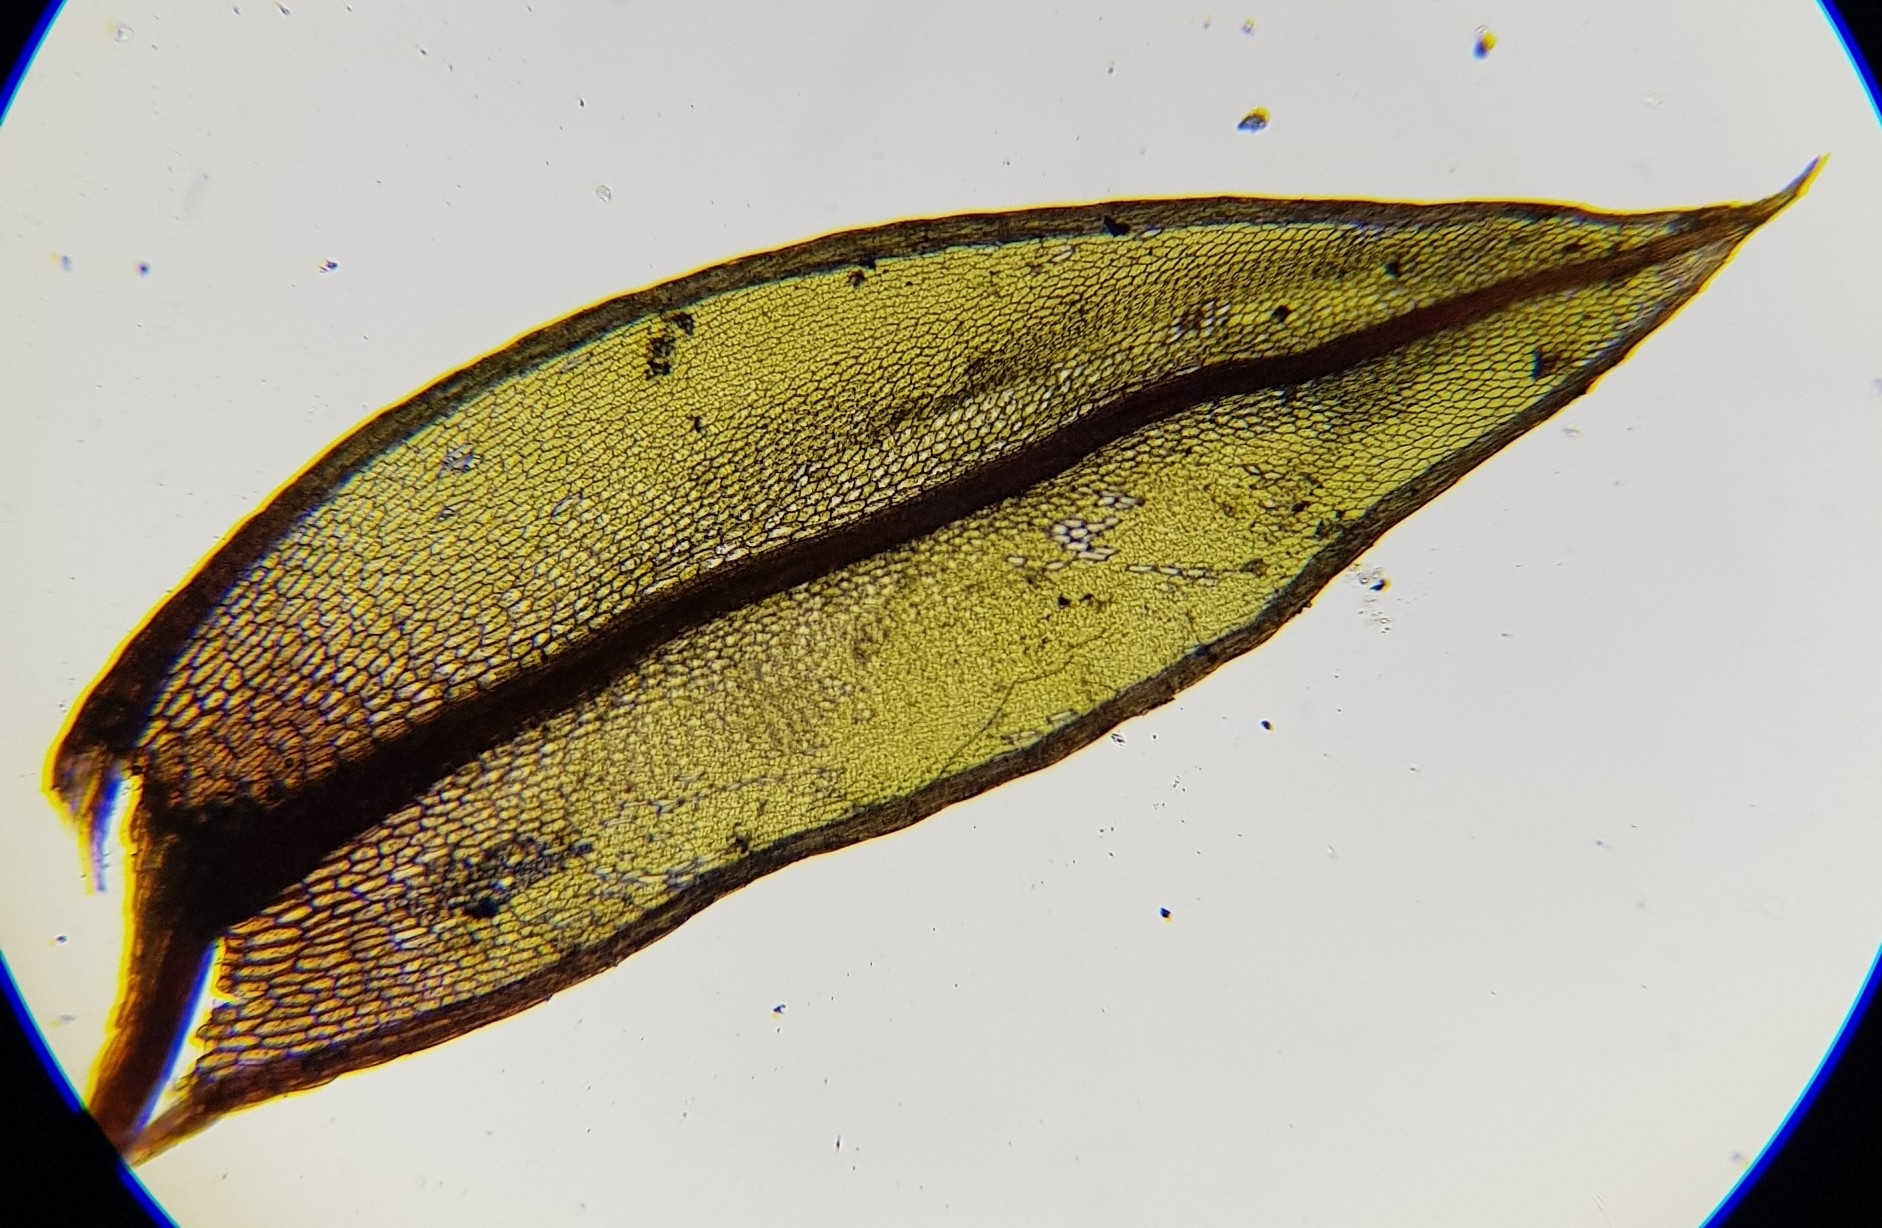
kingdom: Plantae
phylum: Bryophyta
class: Bryopsida
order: Bryales
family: Bryaceae
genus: Ptychostomum
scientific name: Ptychostomum pseudotriquetrum
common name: Long-leaved thread moss
